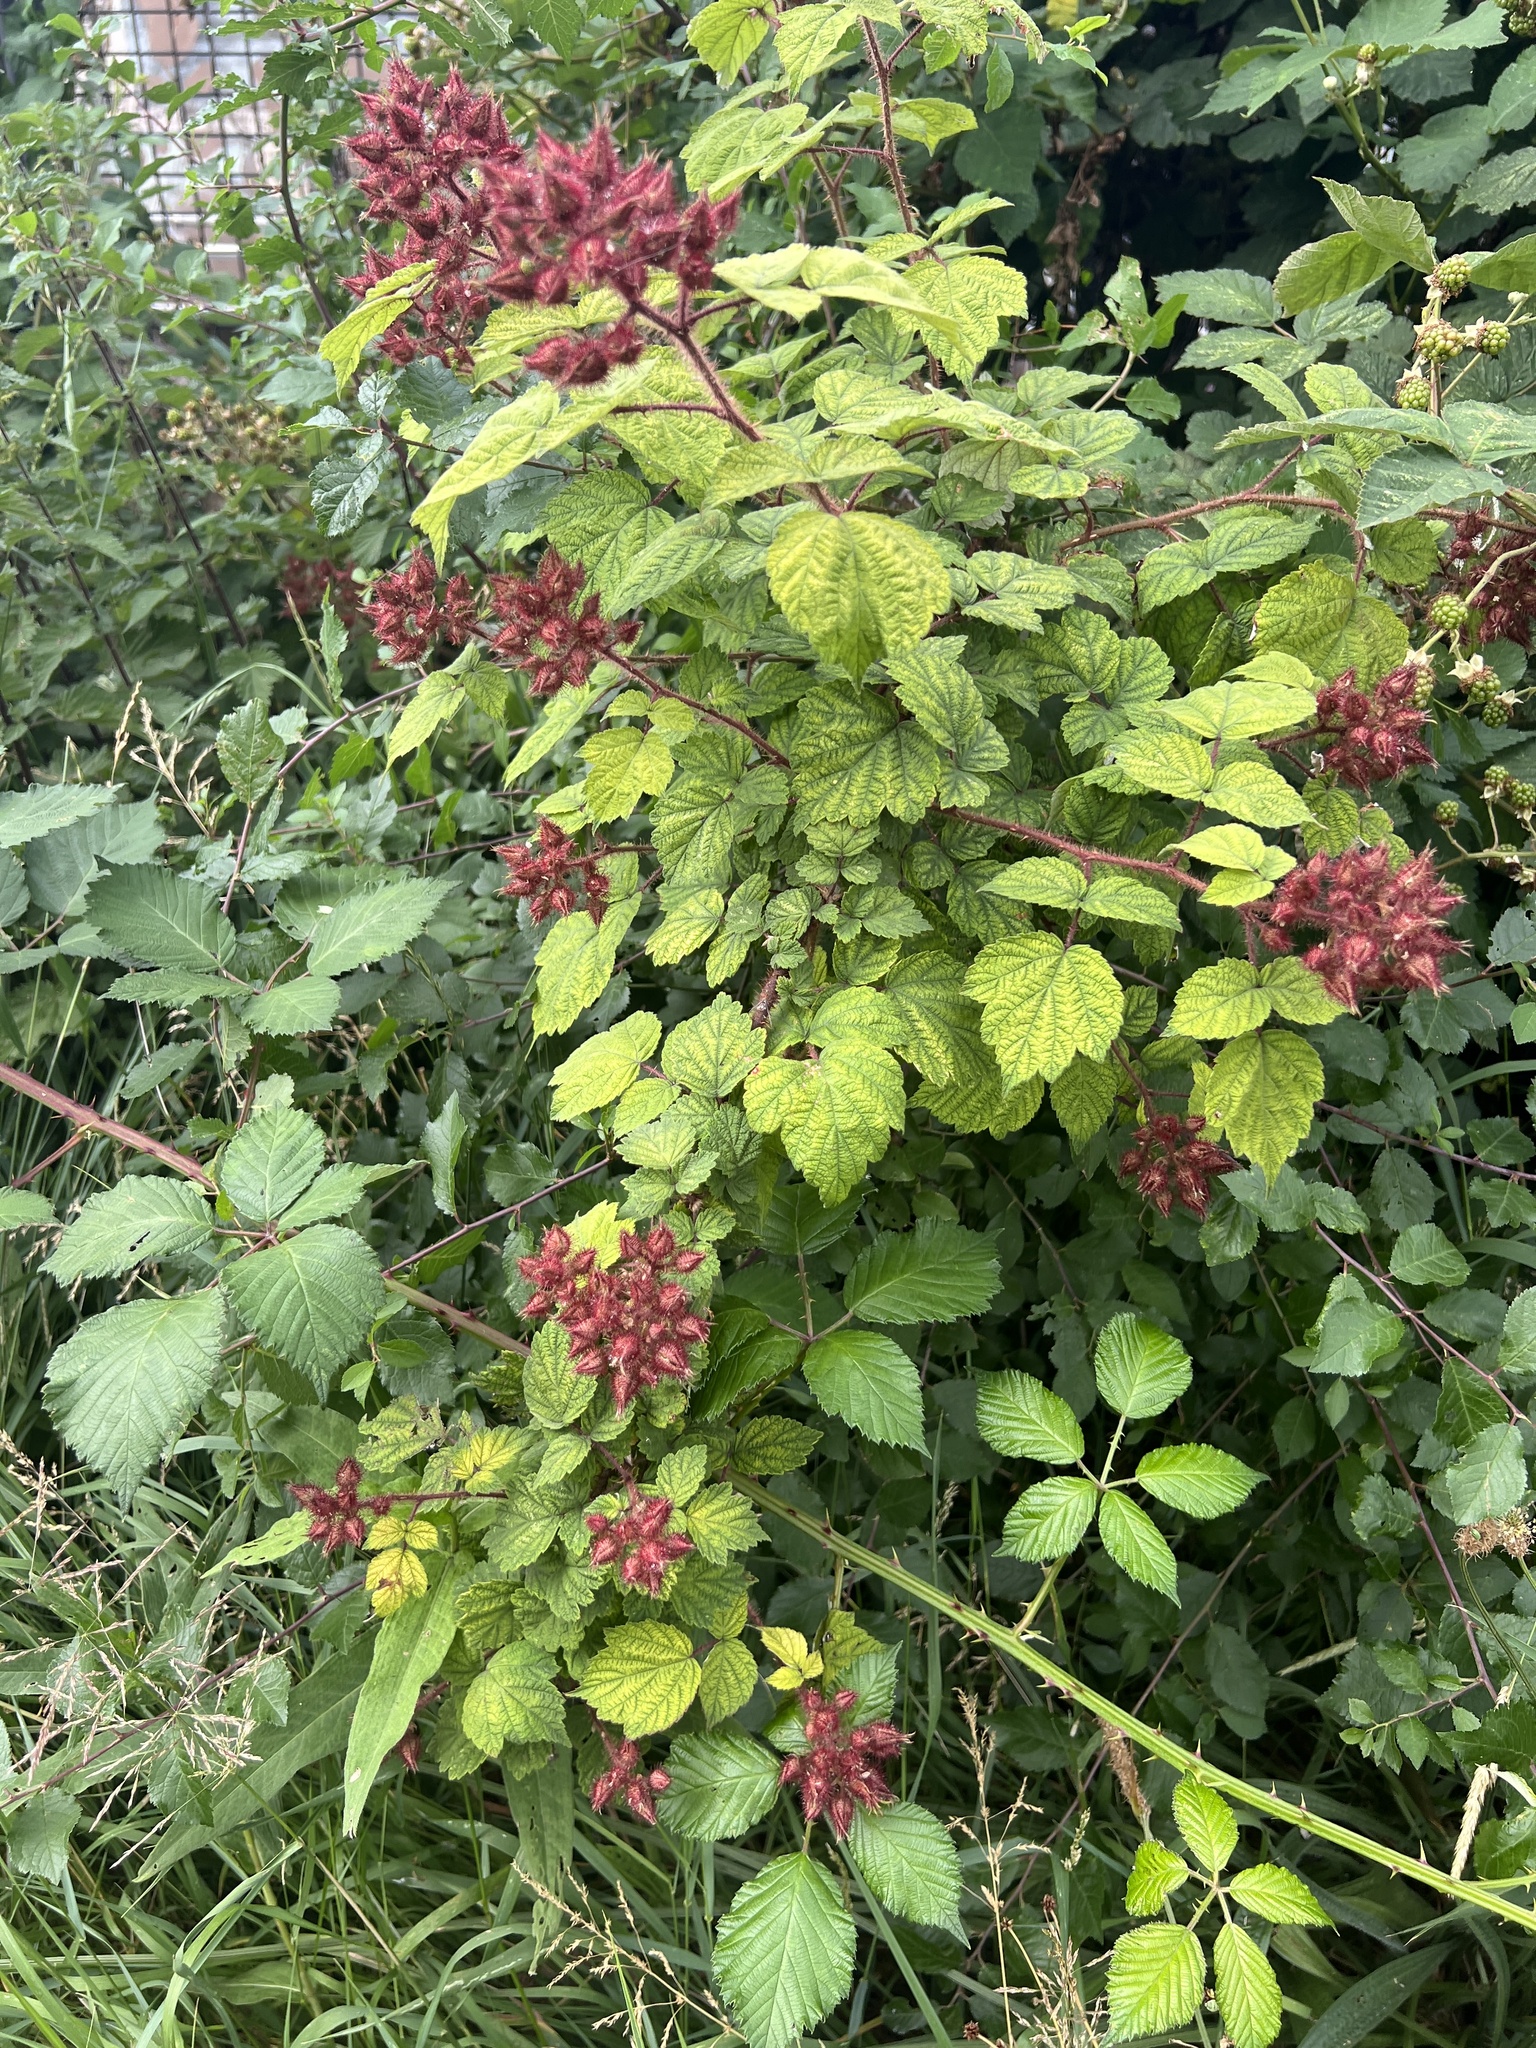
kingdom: Plantae
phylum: Tracheophyta
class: Magnoliopsida
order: Rosales
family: Rosaceae
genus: Rubus
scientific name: Rubus phoenicolasius
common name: Japanese wineberry
